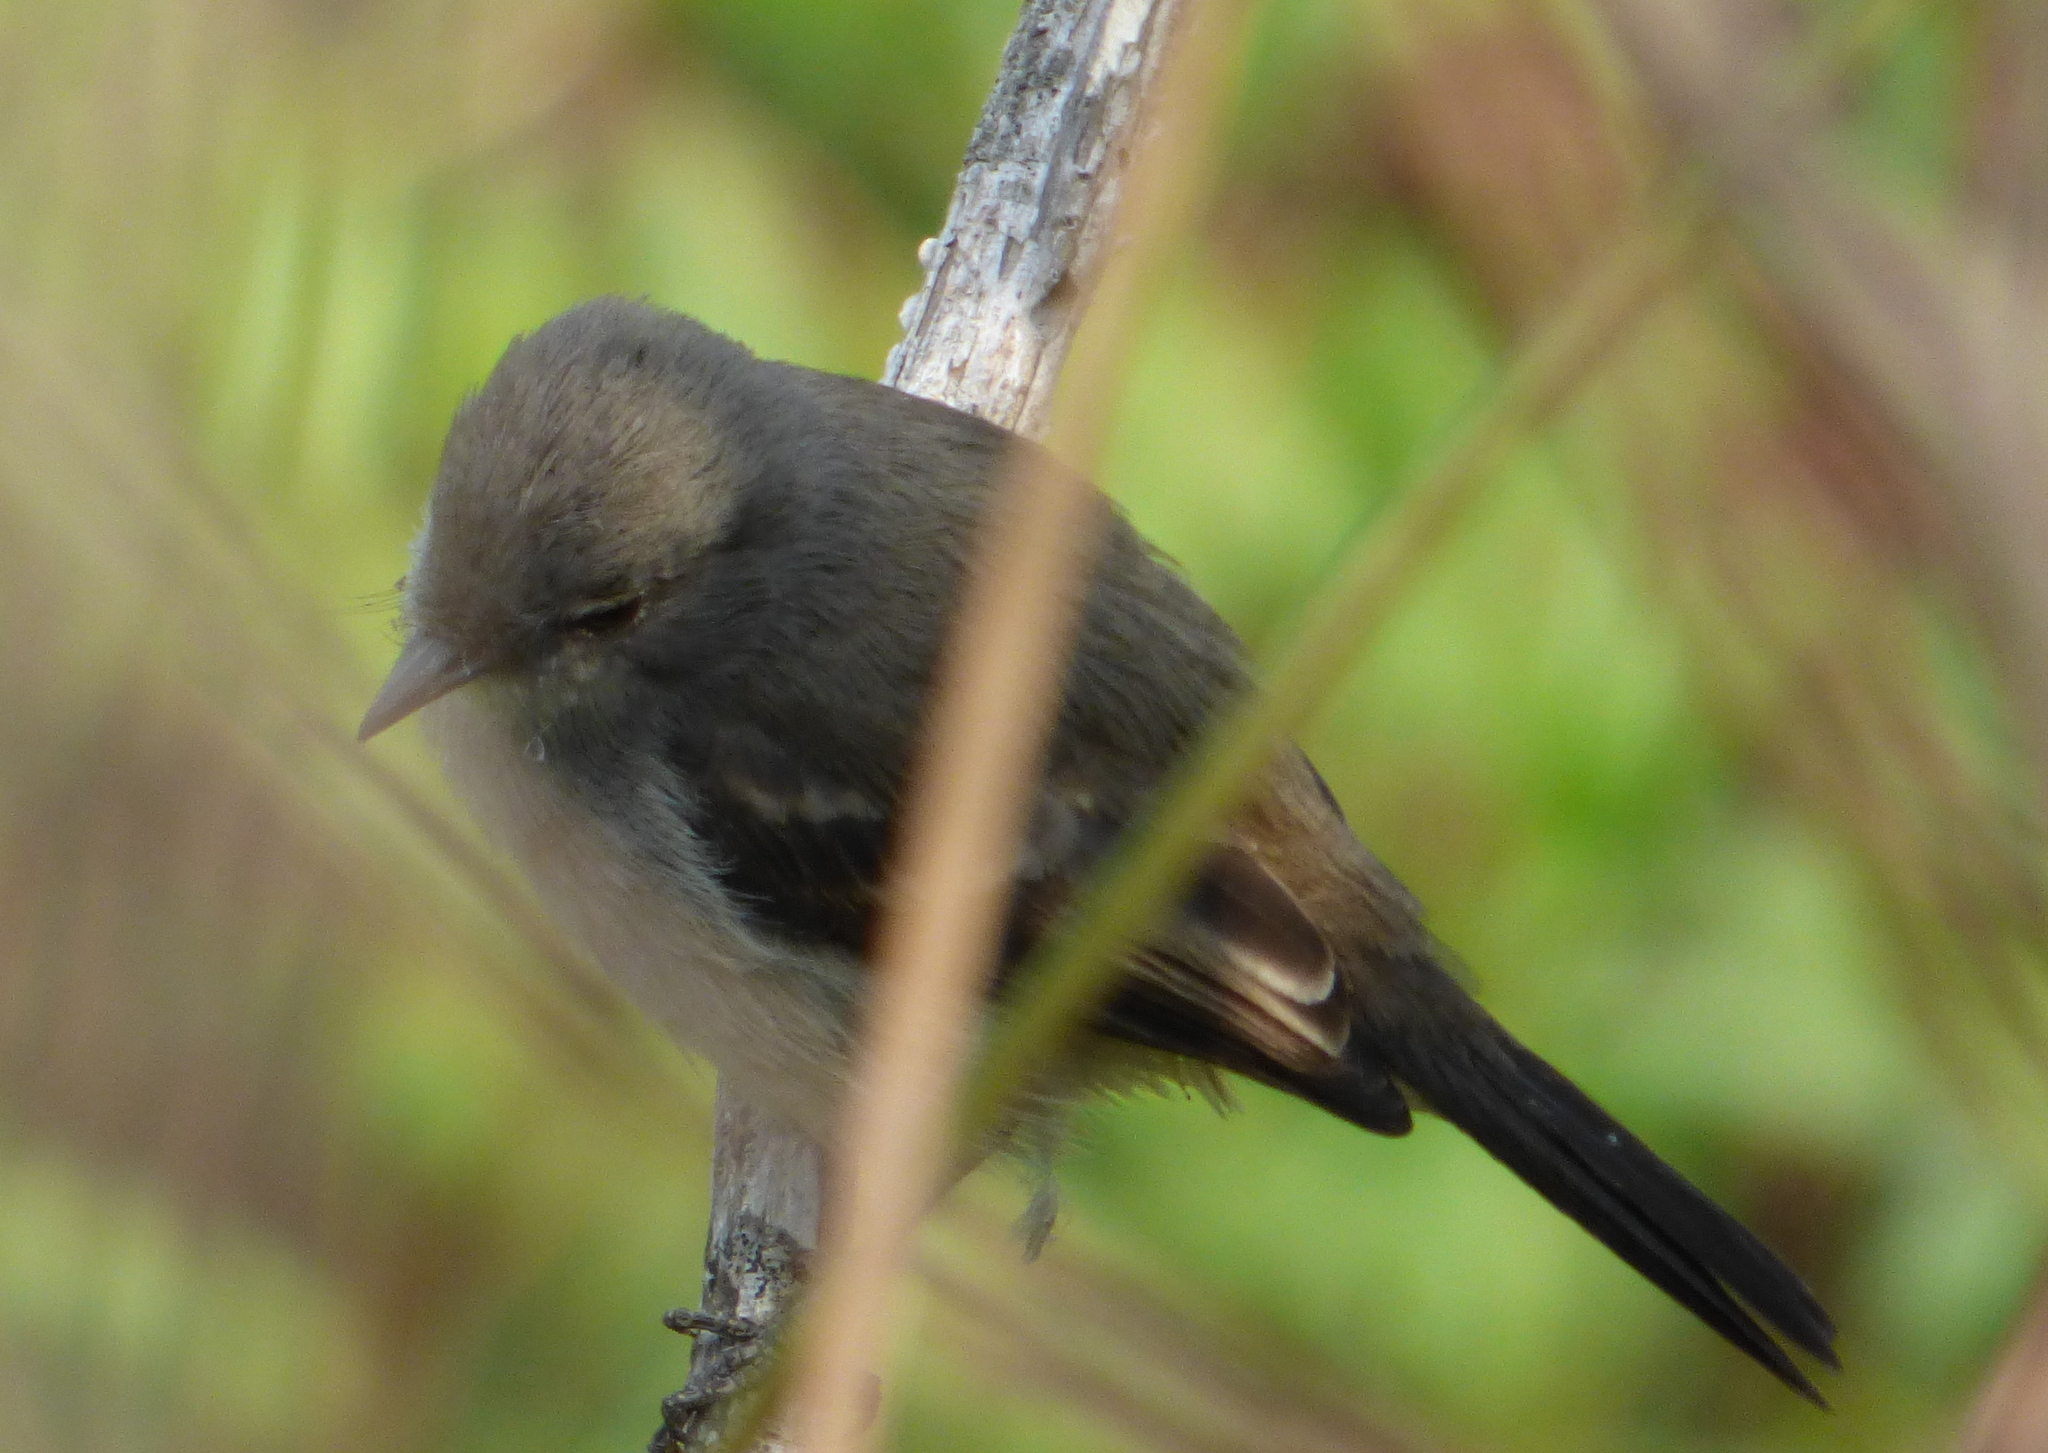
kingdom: Animalia
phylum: Chordata
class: Aves
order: Passeriformes
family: Tyrannidae
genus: Serpophaga
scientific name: Serpophaga nigricans
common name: Sooty tyrannulet
